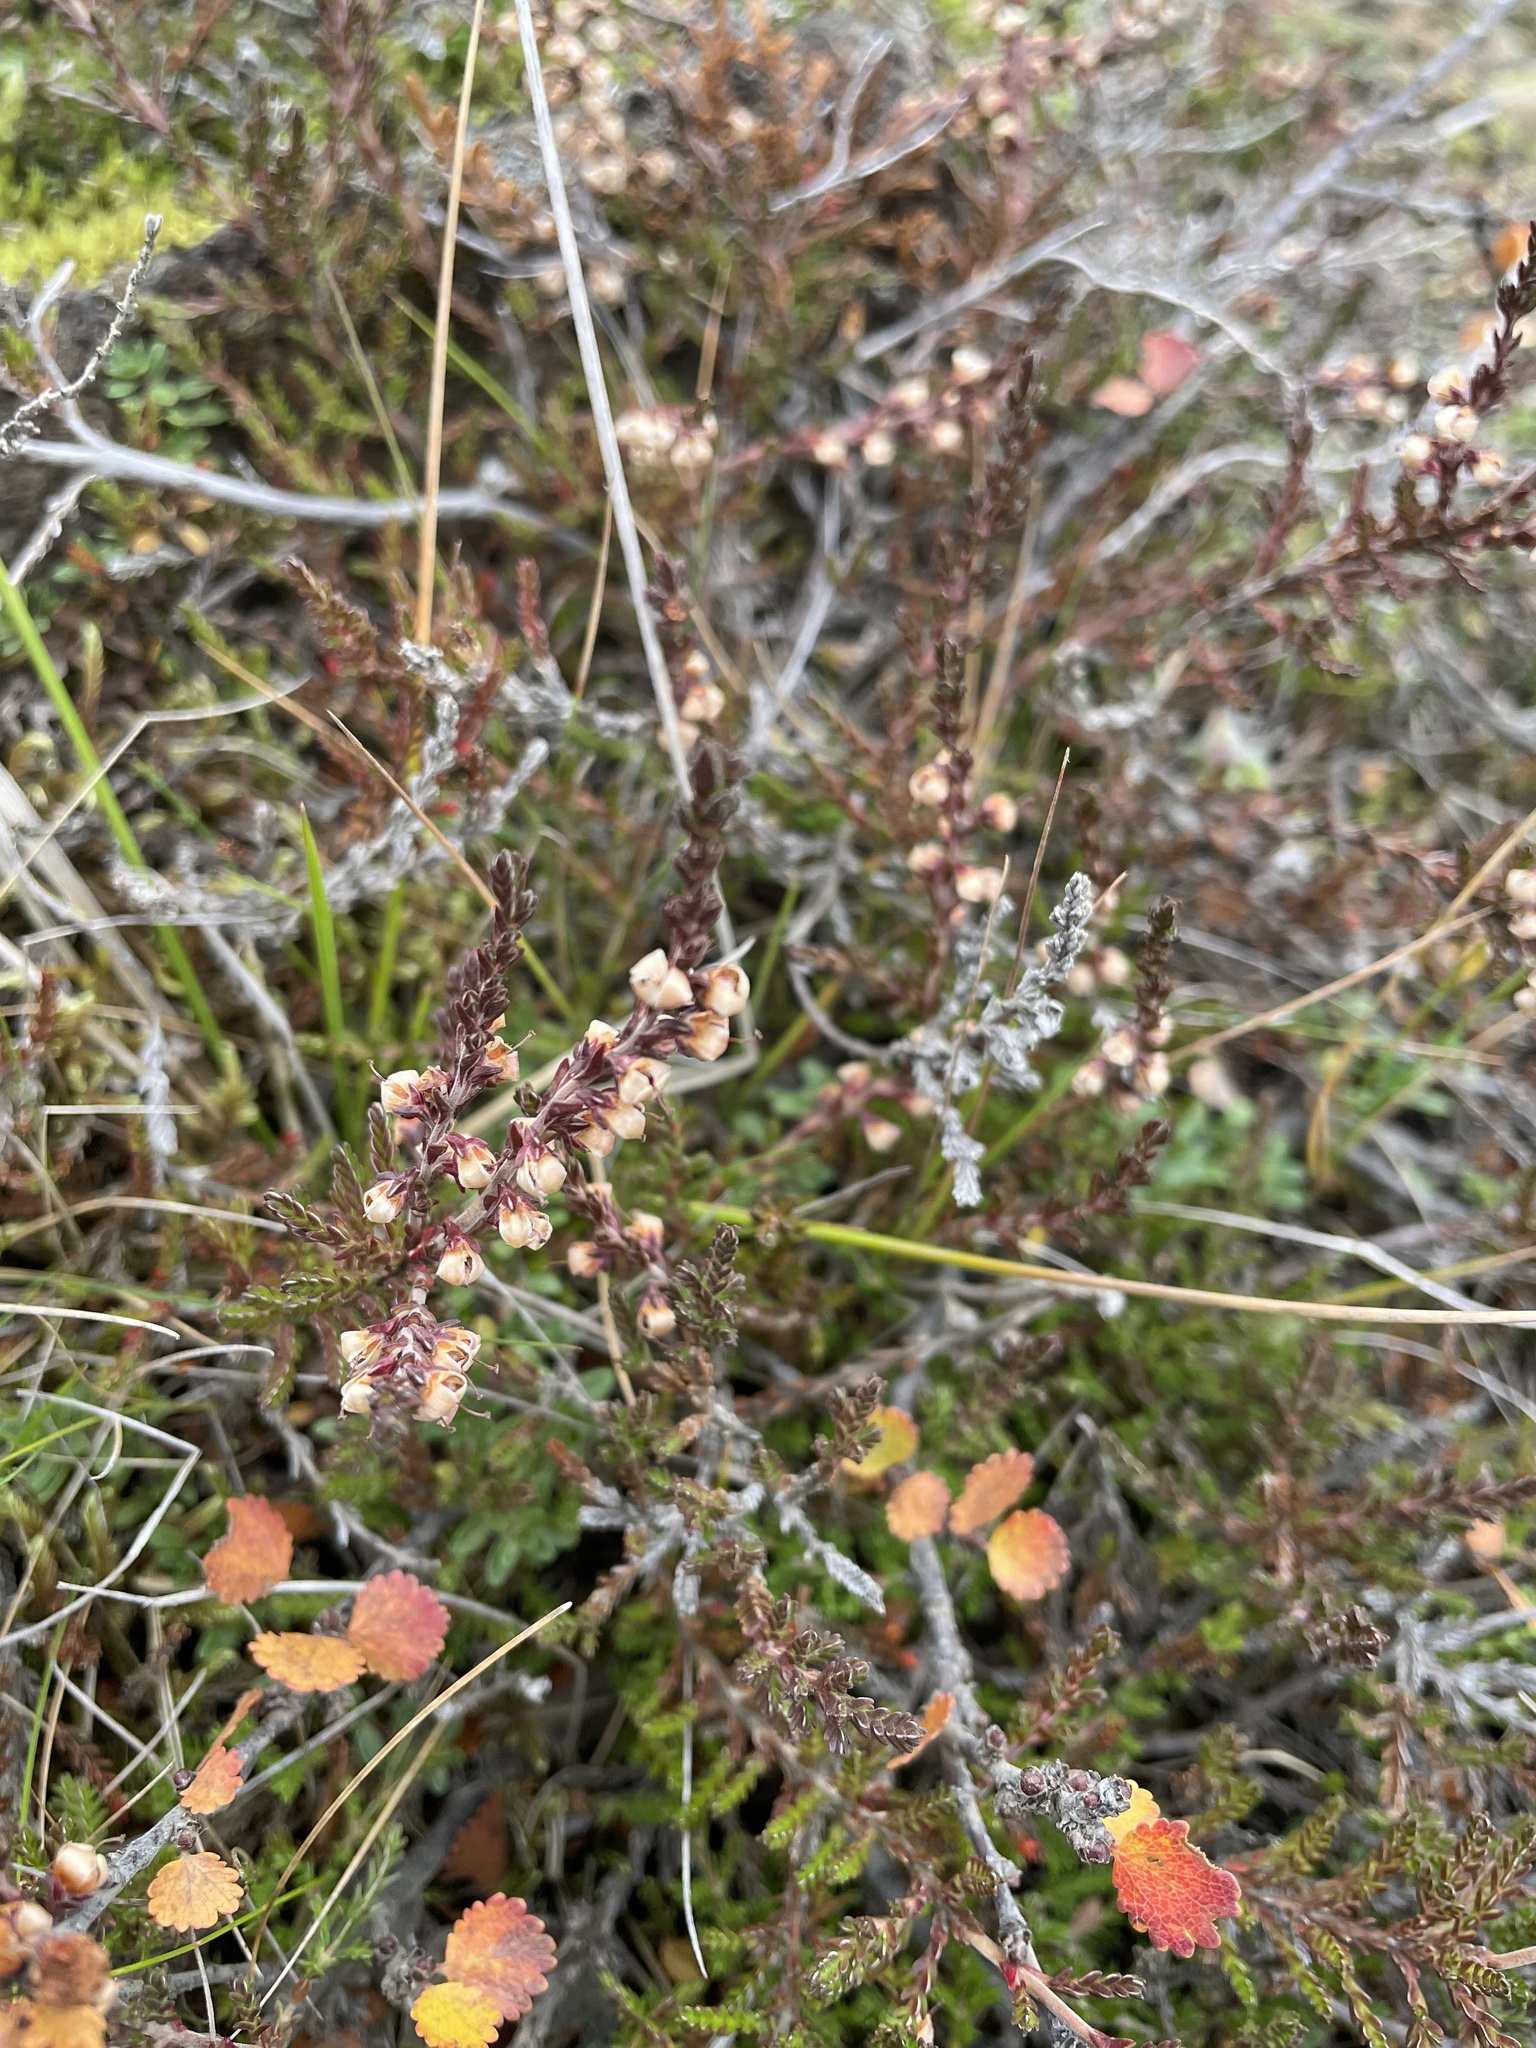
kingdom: Plantae
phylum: Tracheophyta
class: Magnoliopsida
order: Ericales
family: Ericaceae
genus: Calluna
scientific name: Calluna vulgaris
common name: Heather
